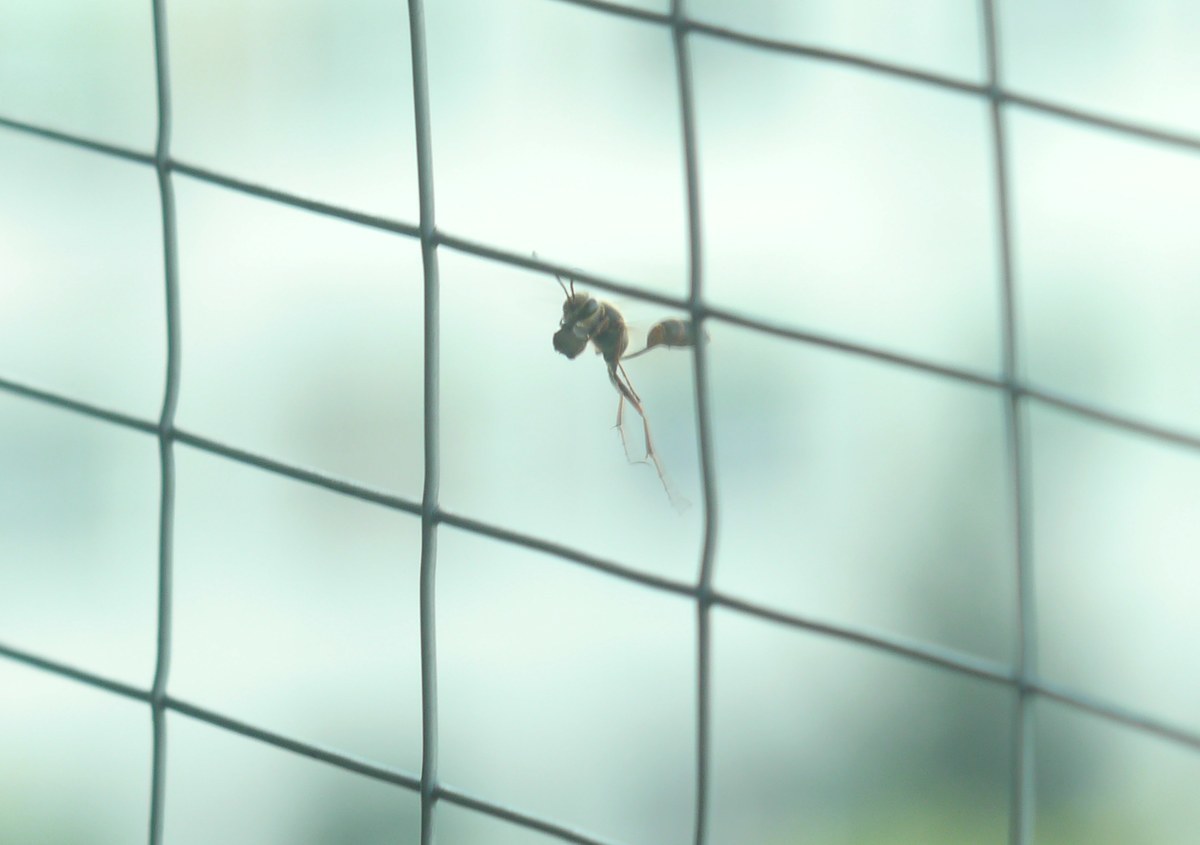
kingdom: Animalia
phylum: Arthropoda
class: Insecta
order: Hymenoptera
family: Sphecidae
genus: Sceliphron
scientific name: Sceliphron curvatum
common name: Pèlopèe
